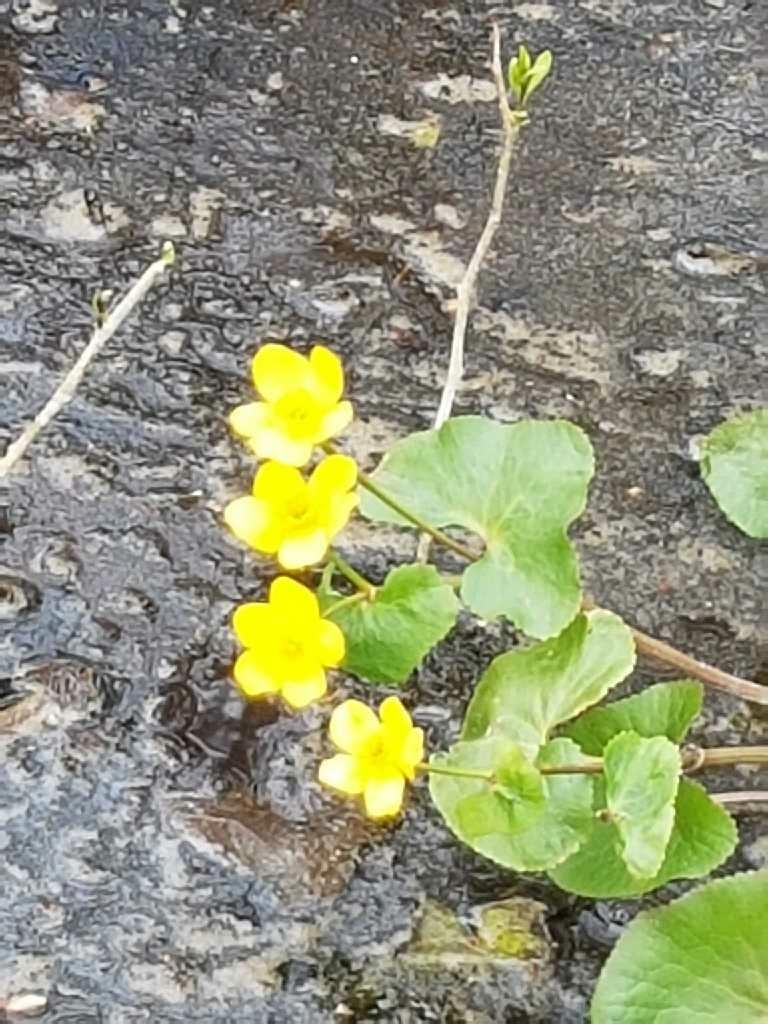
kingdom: Plantae
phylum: Tracheophyta
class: Magnoliopsida
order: Ranunculales
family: Ranunculaceae
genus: Caltha
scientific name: Caltha palustris
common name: Marsh marigold
